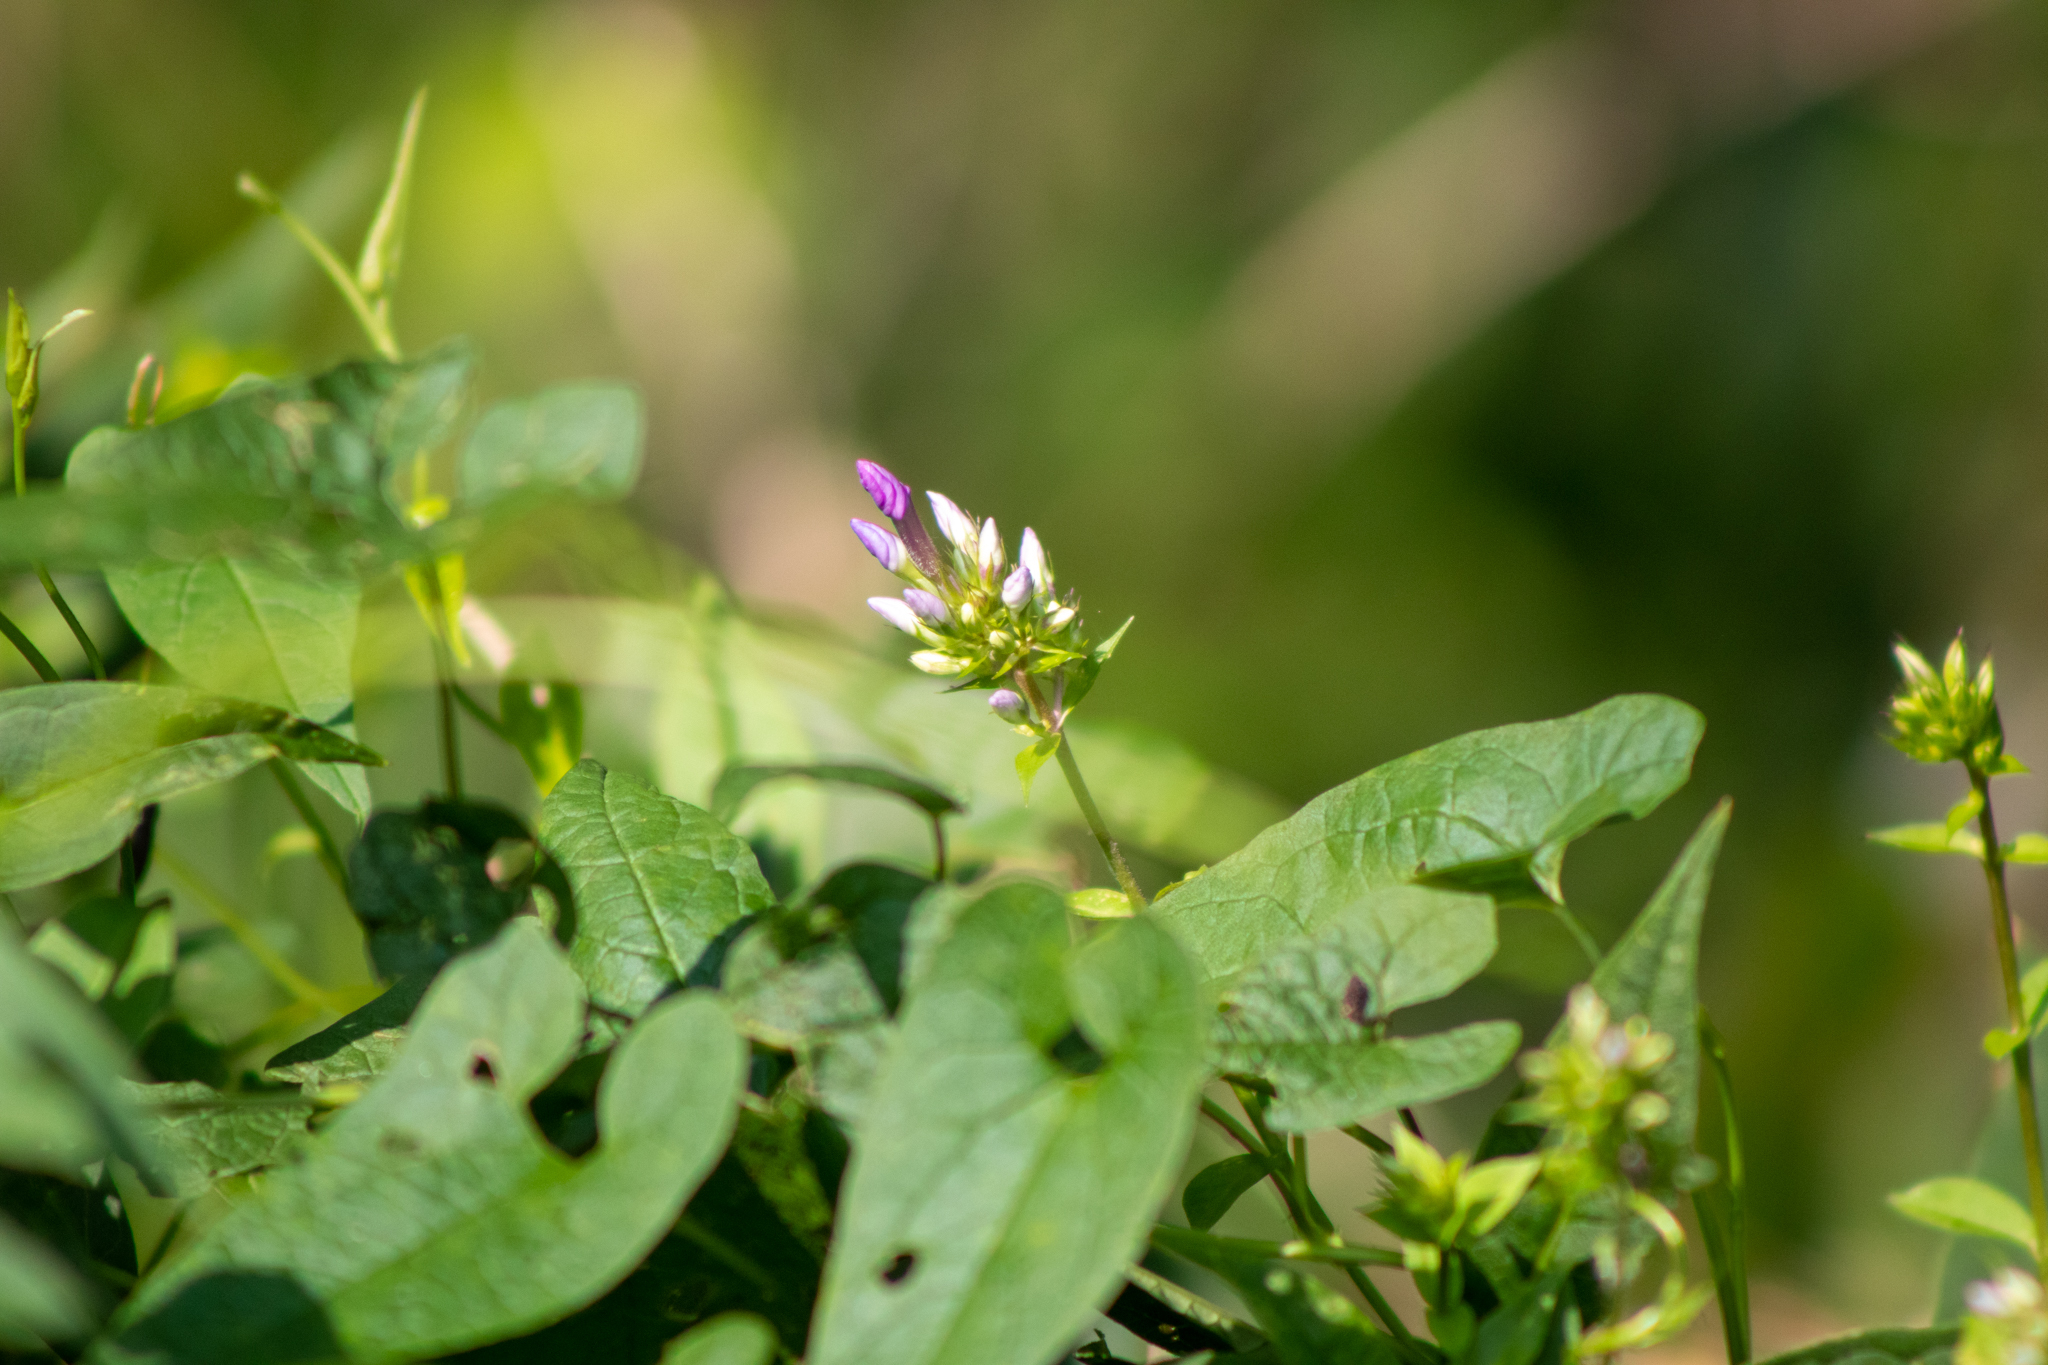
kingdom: Plantae
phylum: Tracheophyta
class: Magnoliopsida
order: Ericales
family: Polemoniaceae
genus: Phlox
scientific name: Phlox paniculata
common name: Fall phlox
